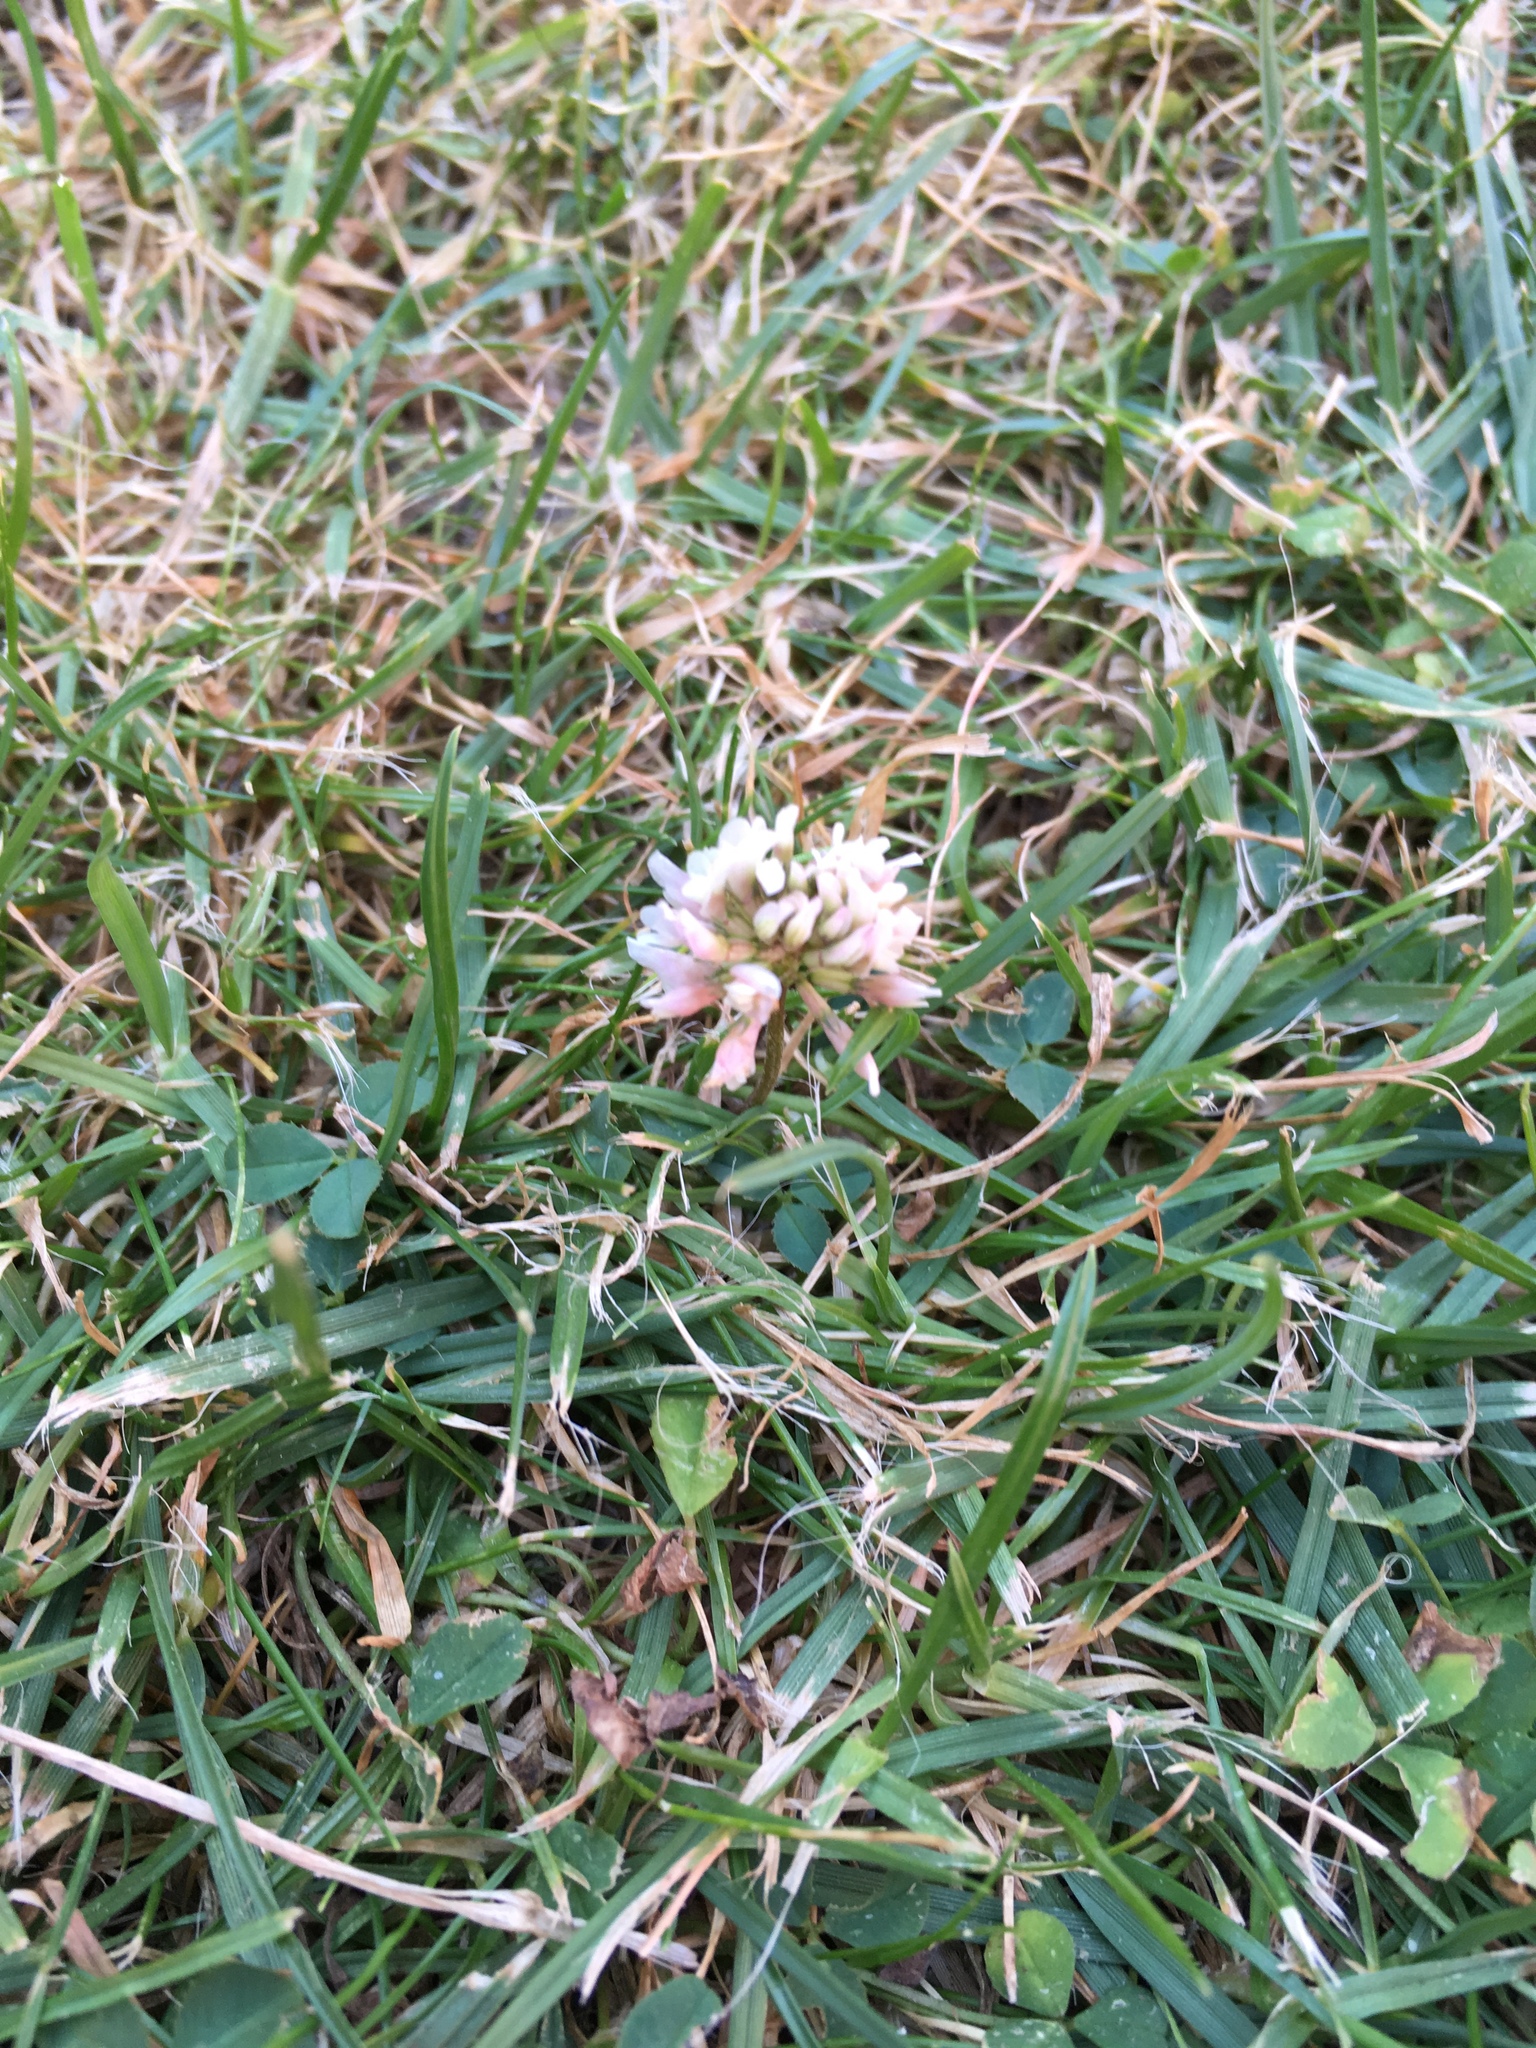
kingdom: Plantae
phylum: Tracheophyta
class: Magnoliopsida
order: Fabales
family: Fabaceae
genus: Trifolium
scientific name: Trifolium repens
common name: White clover
